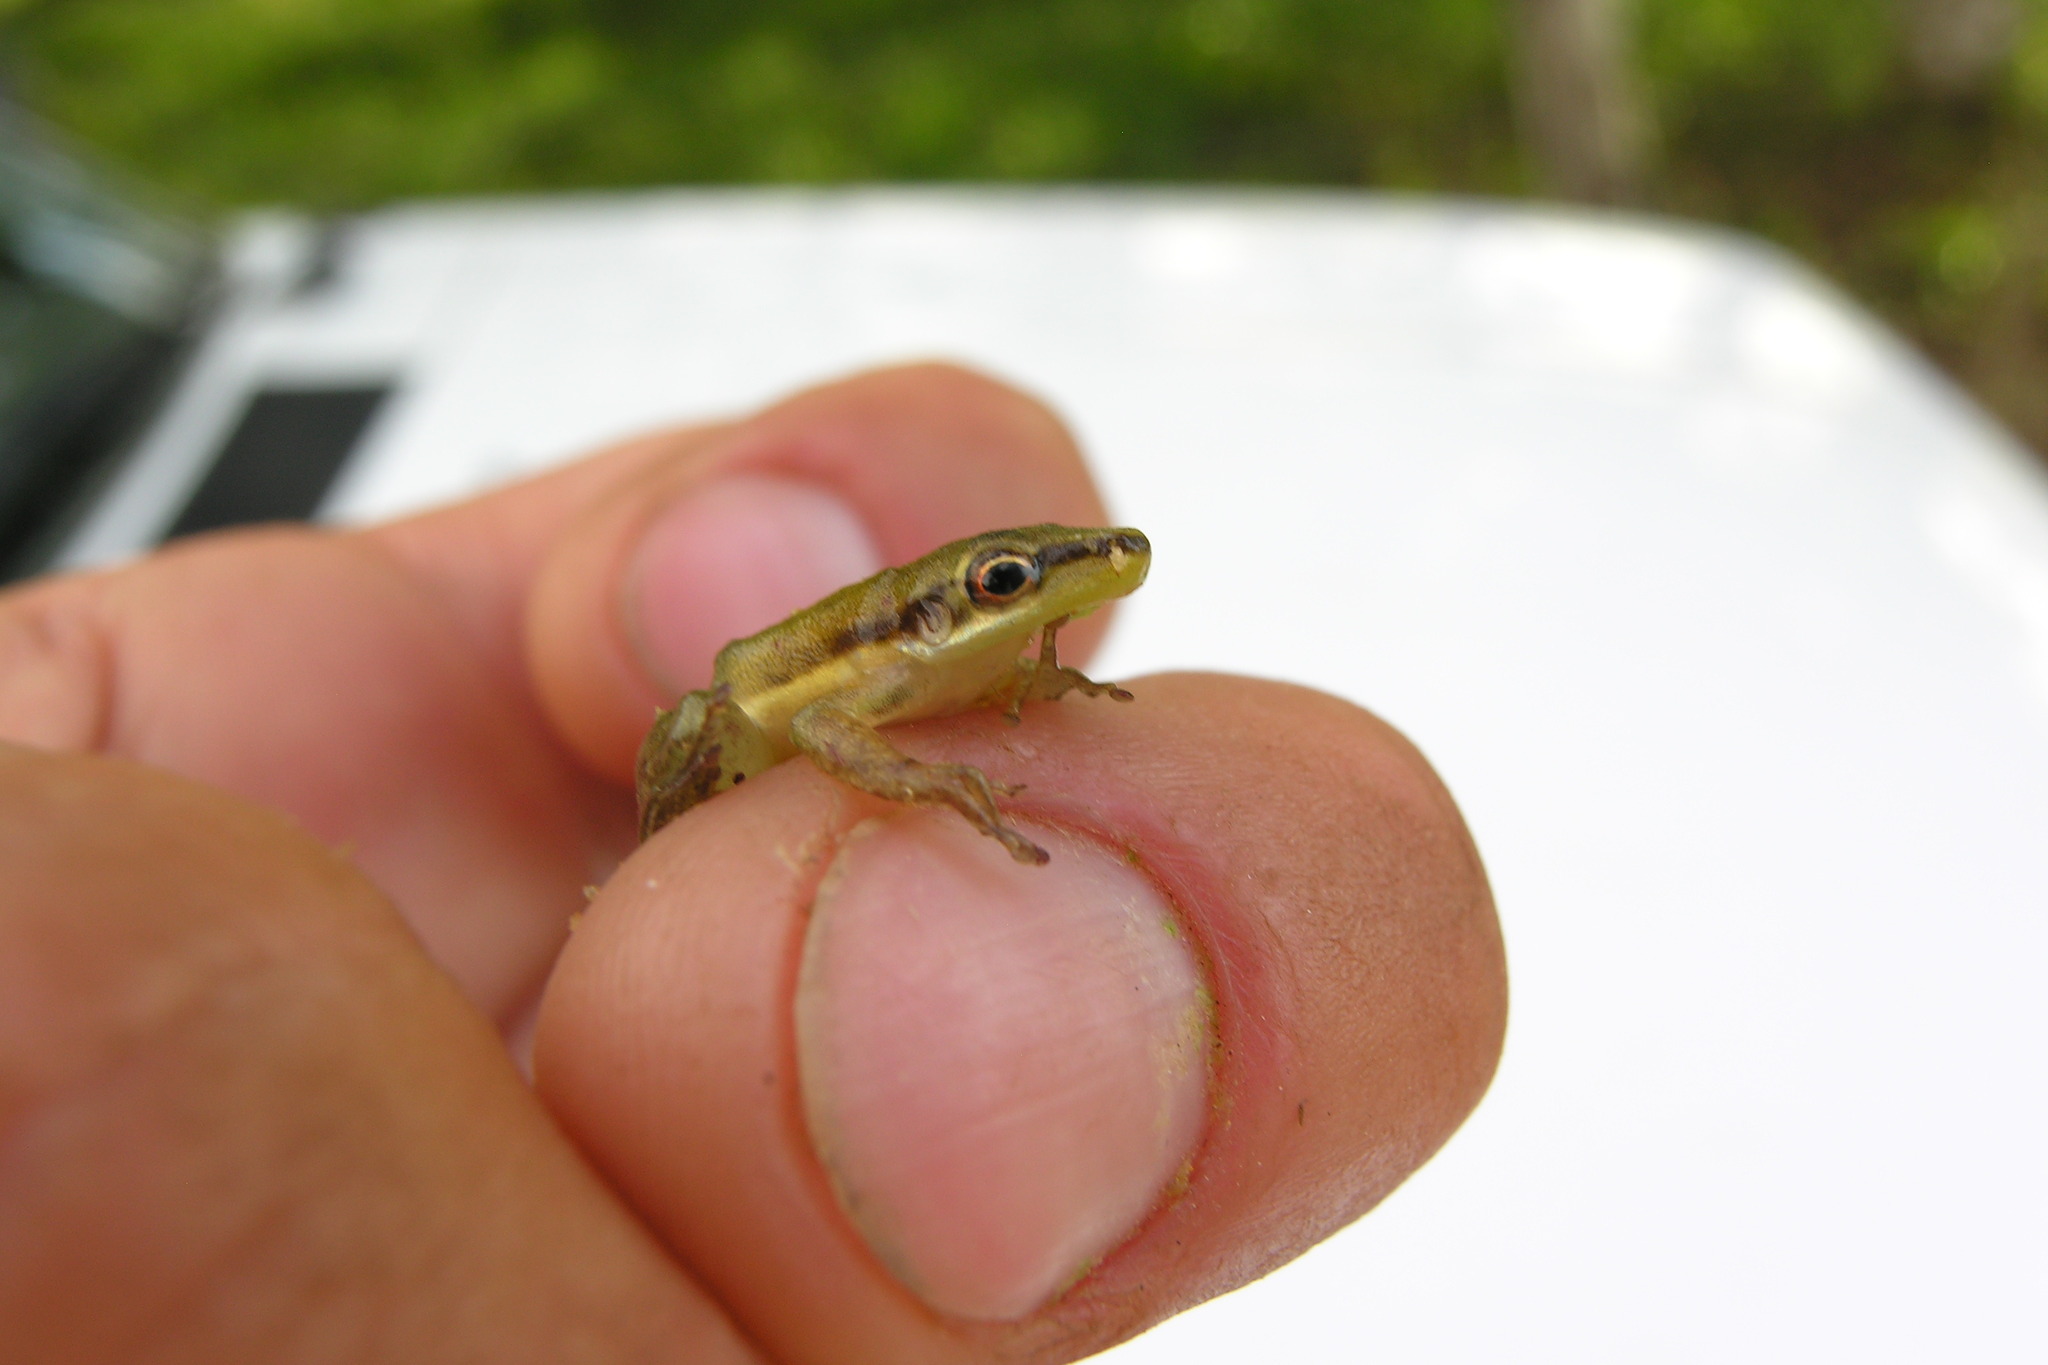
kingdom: Animalia
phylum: Chordata
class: Amphibia
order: Anura
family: Hylidae
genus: Scarthyla
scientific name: Scarthyla vigilans
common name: Maracaibo basin treefrog
